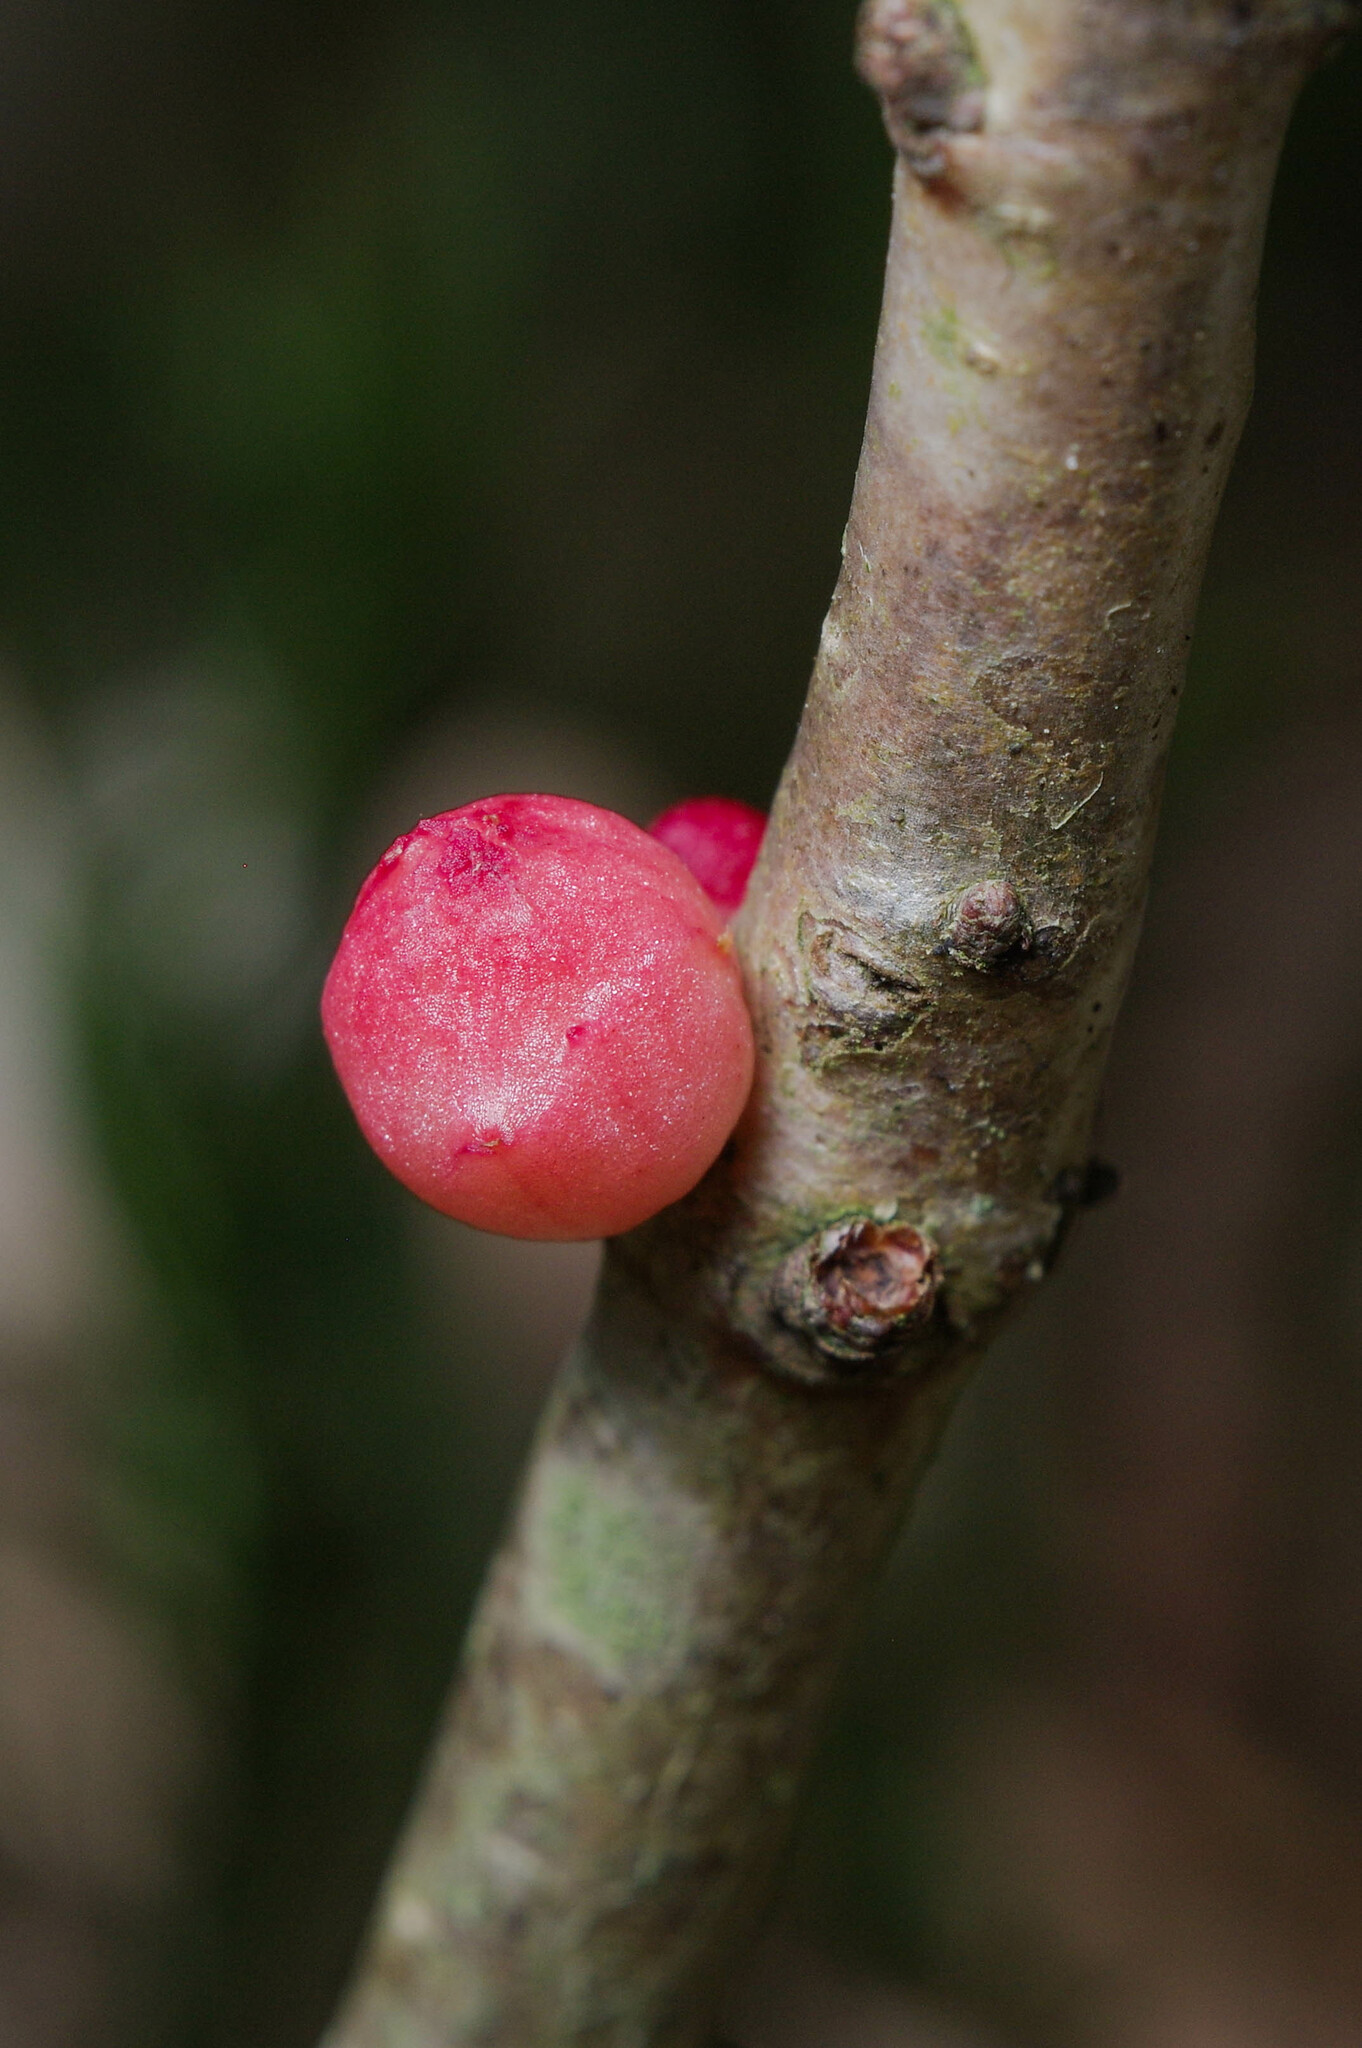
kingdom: Animalia
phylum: Arthropoda
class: Insecta
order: Hymenoptera
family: Cynipidae
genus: Trigonaspis
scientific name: Trigonaspis megaptera
